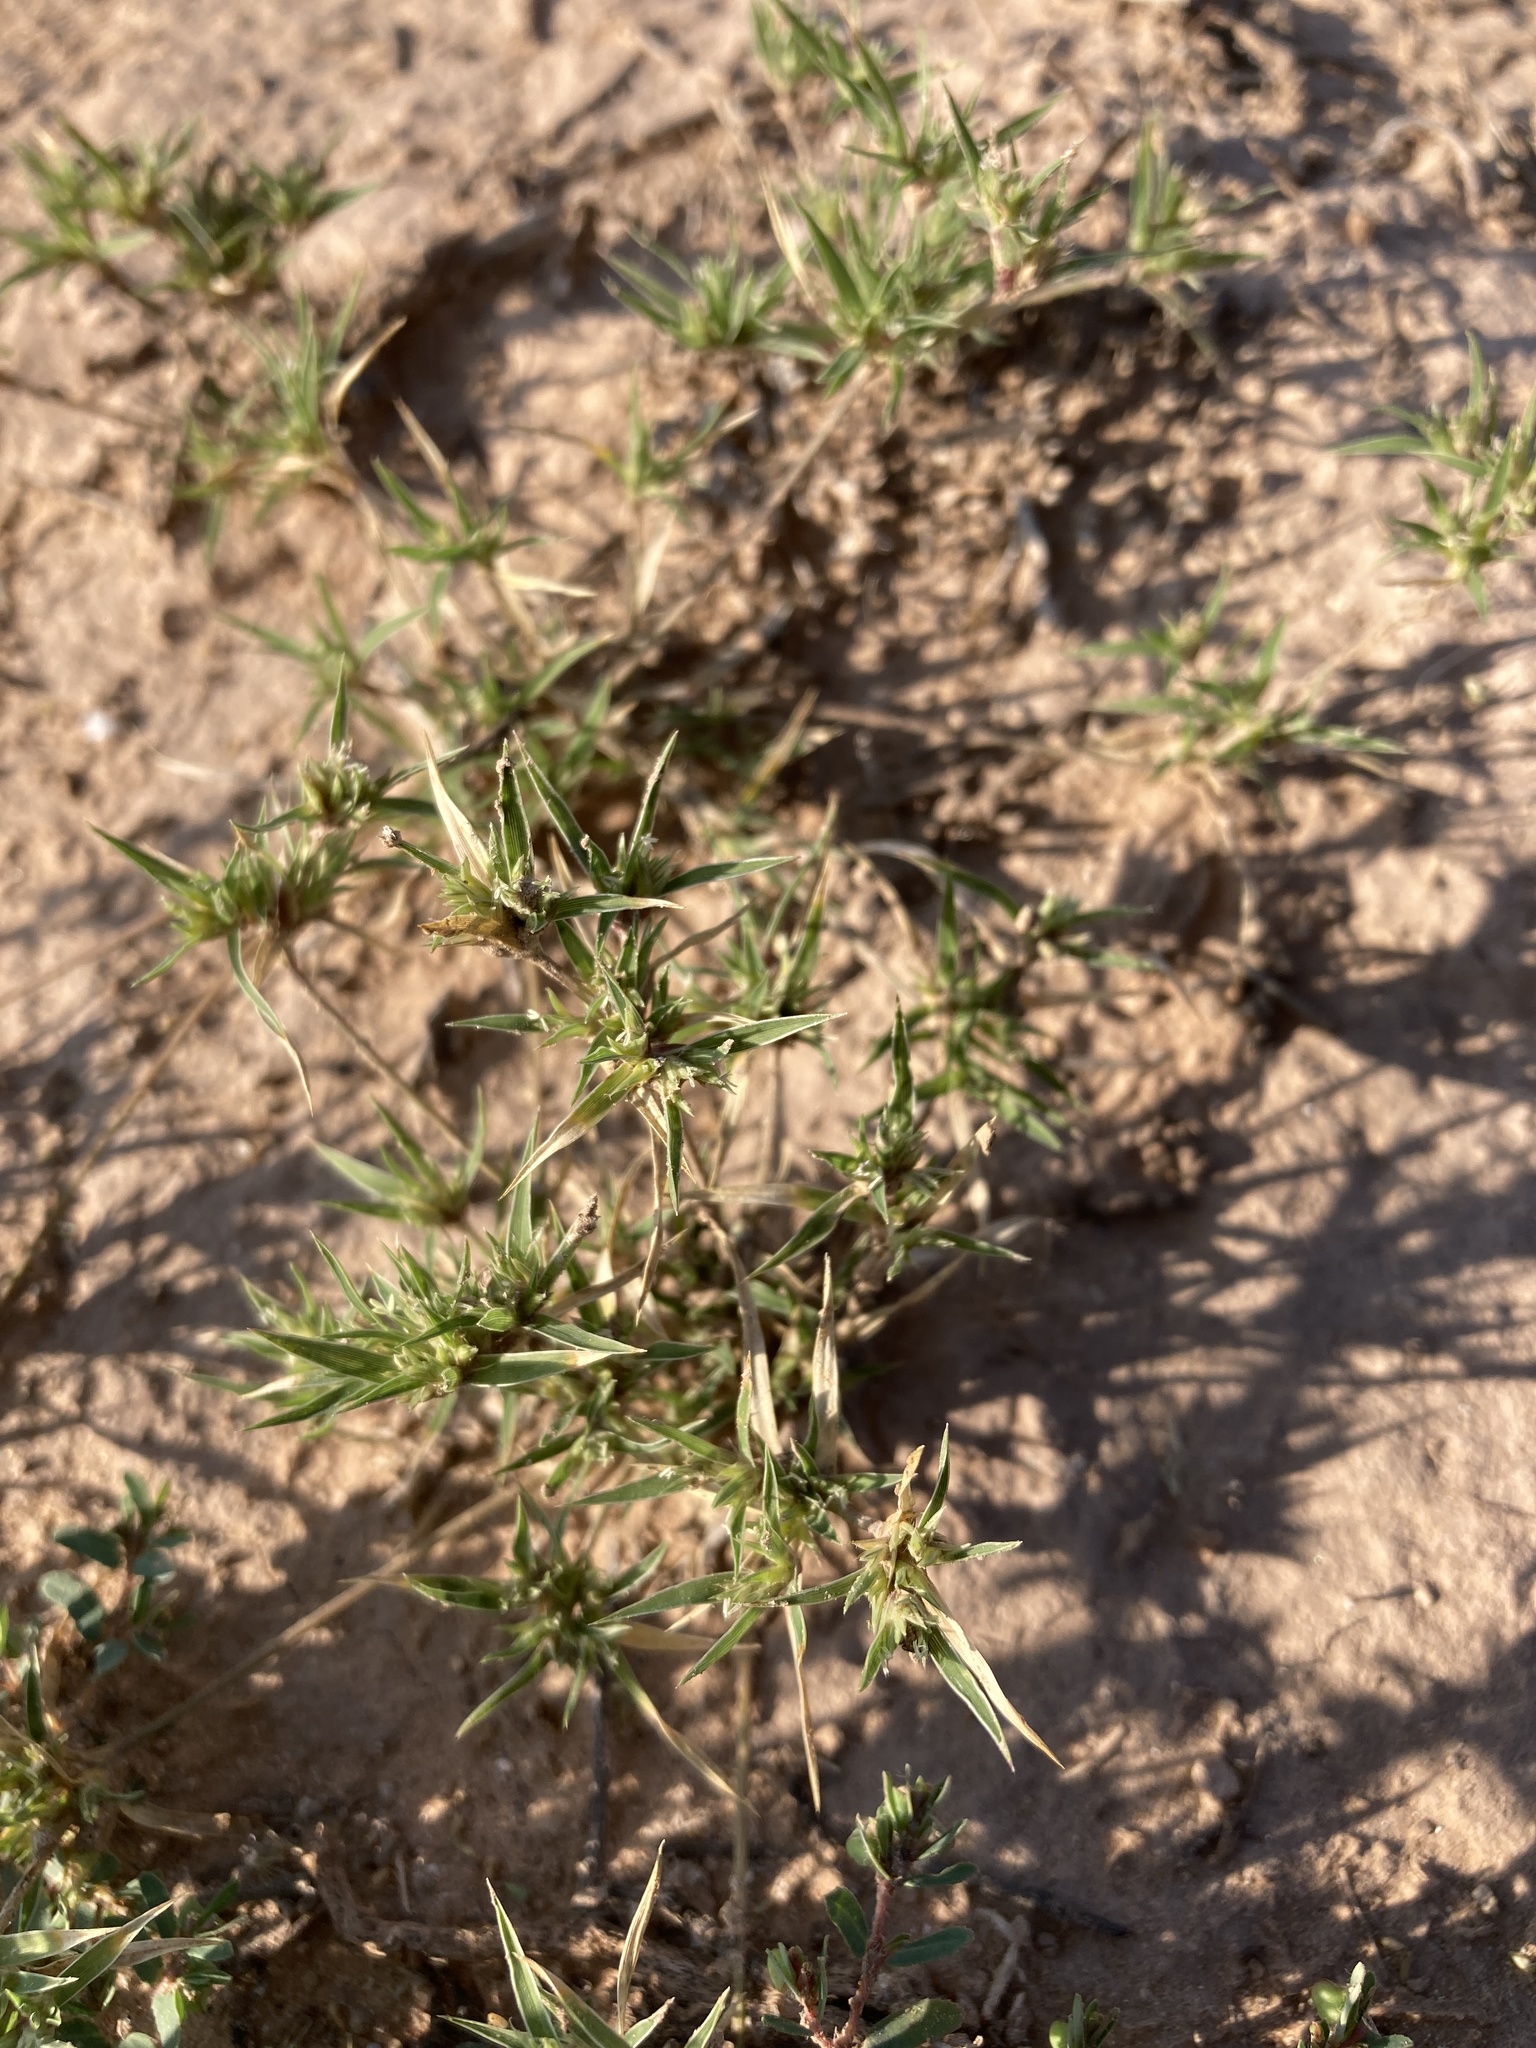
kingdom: Plantae
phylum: Tracheophyta
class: Liliopsida
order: Poales
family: Poaceae
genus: Munroa
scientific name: Munroa squarrosa
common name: False buffalo grass
